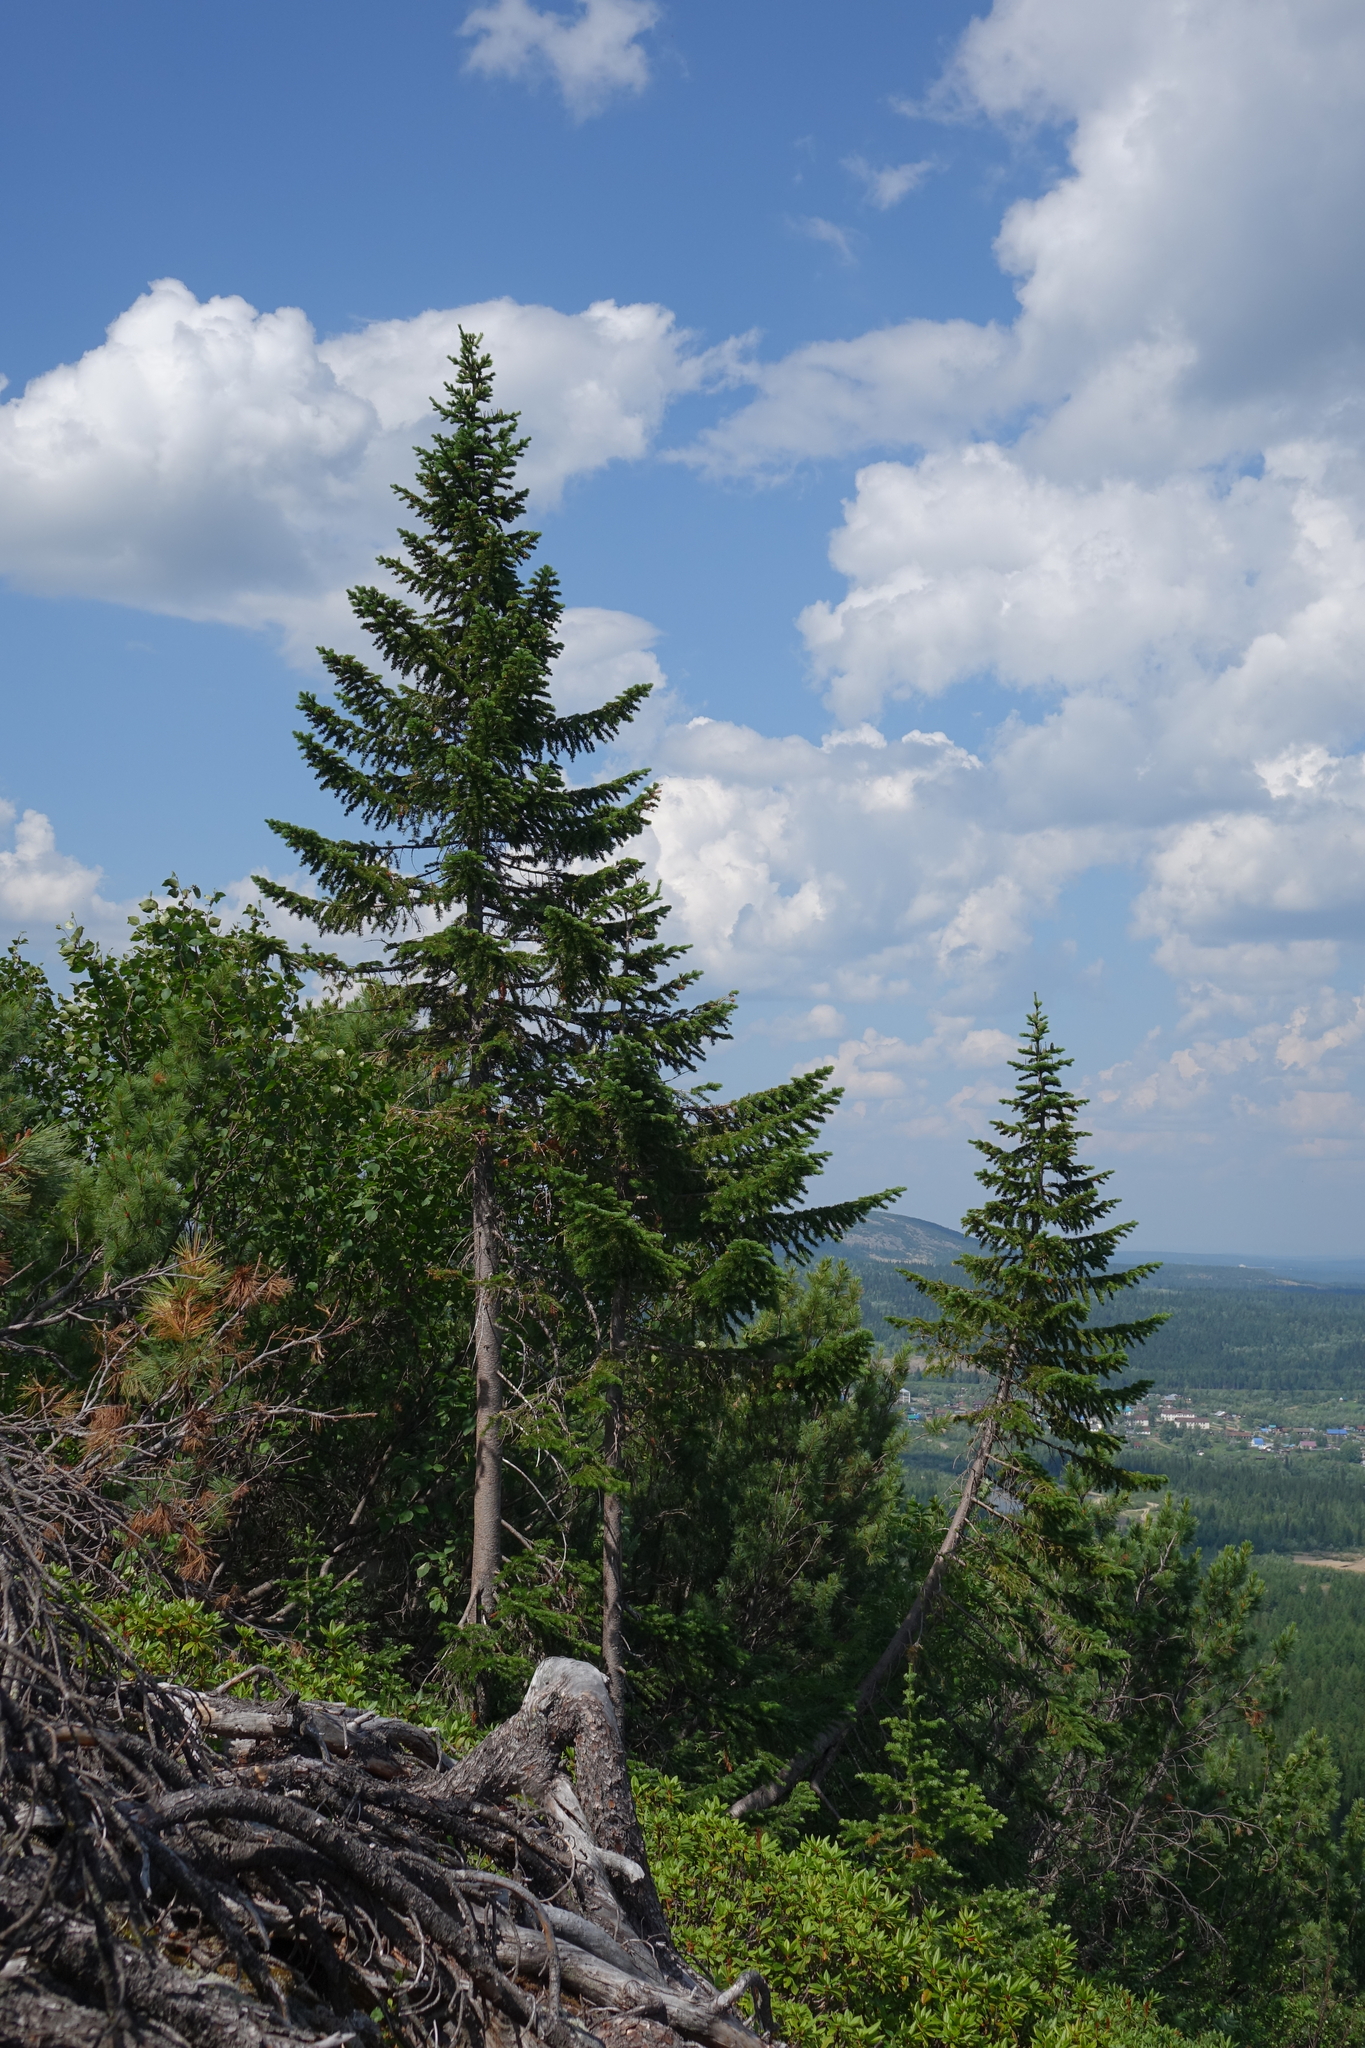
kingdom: Plantae
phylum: Tracheophyta
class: Pinopsida
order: Pinales
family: Pinaceae
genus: Abies
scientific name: Abies sibirica
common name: Siberian fir
